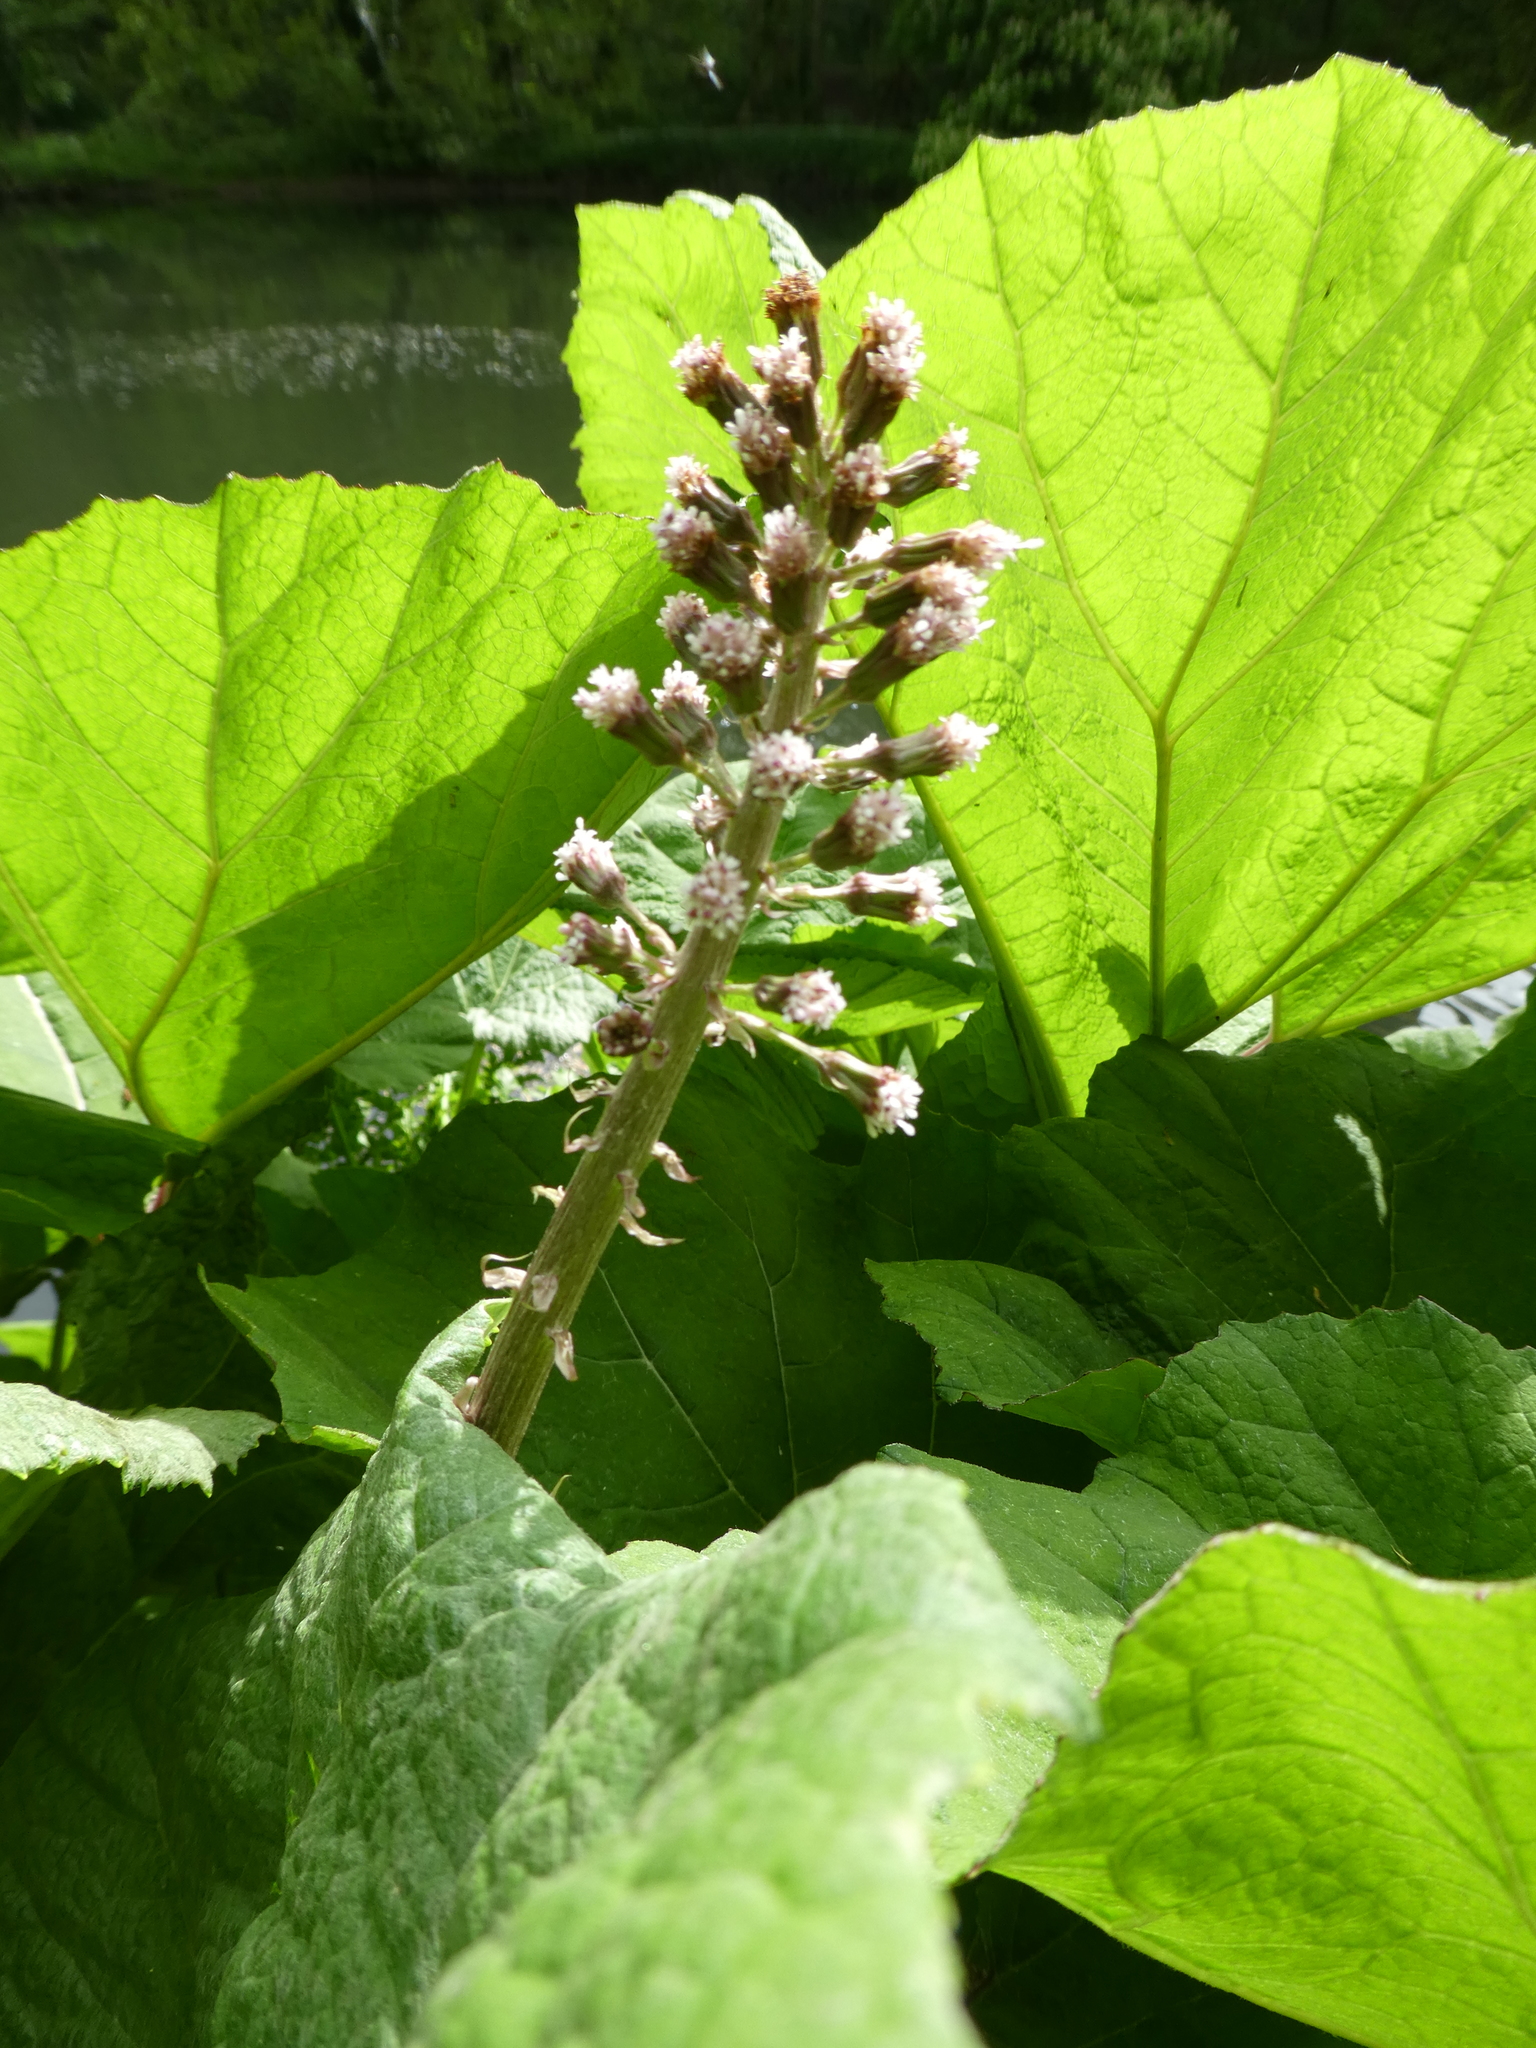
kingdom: Plantae
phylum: Tracheophyta
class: Magnoliopsida
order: Asterales
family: Asteraceae
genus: Petasites
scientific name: Petasites hybridus
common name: Butterbur
